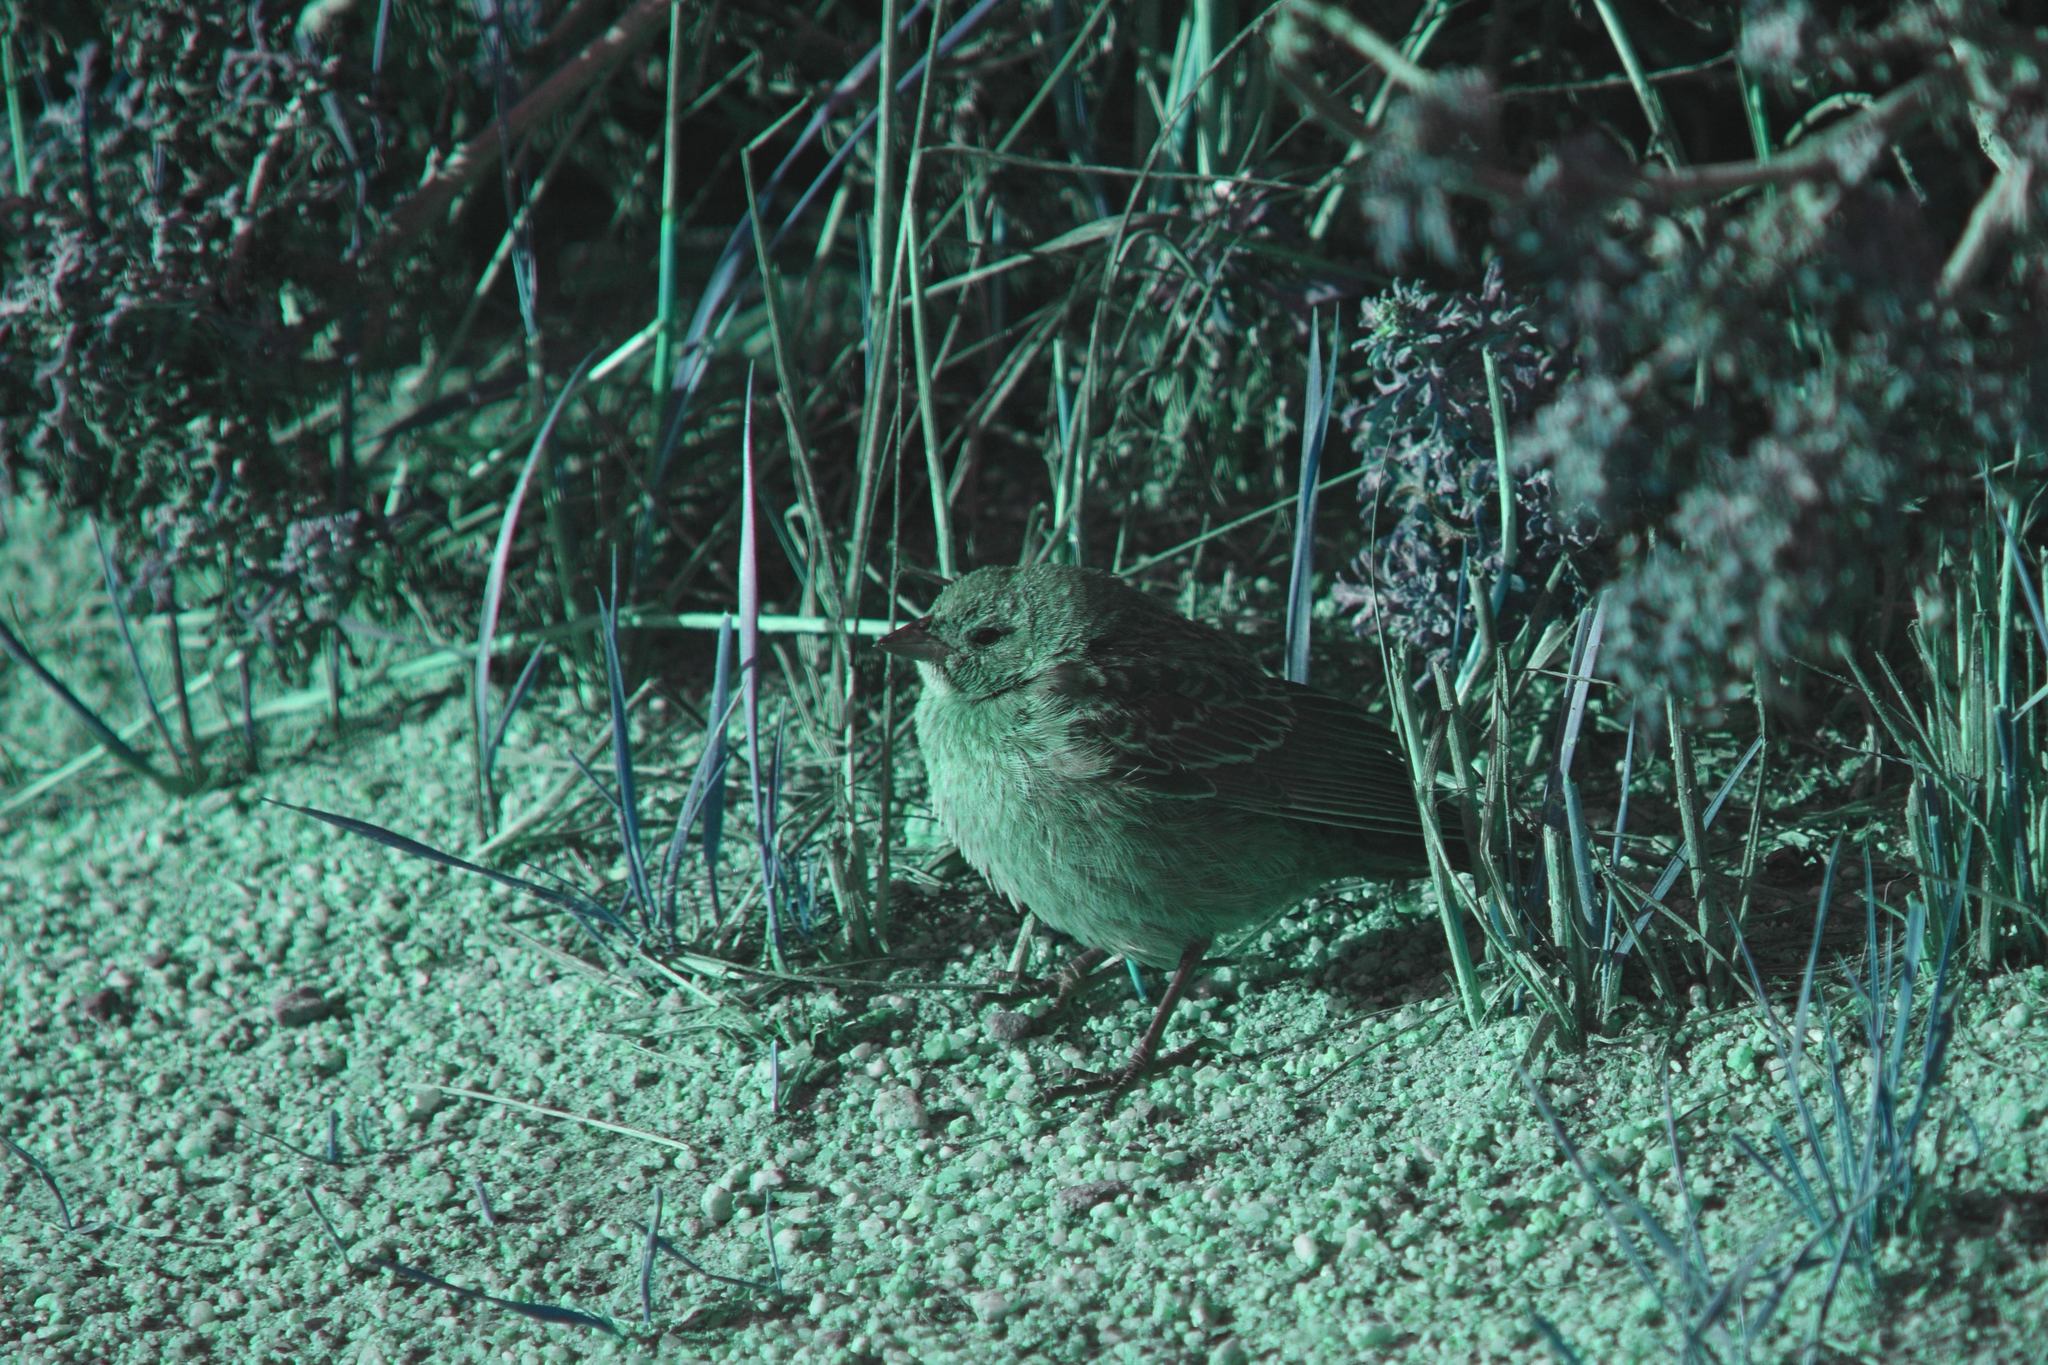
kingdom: Animalia
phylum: Chordata
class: Aves
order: Passeriformes
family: Icteridae
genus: Molothrus
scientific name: Molothrus ater
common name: Brown-headed cowbird
